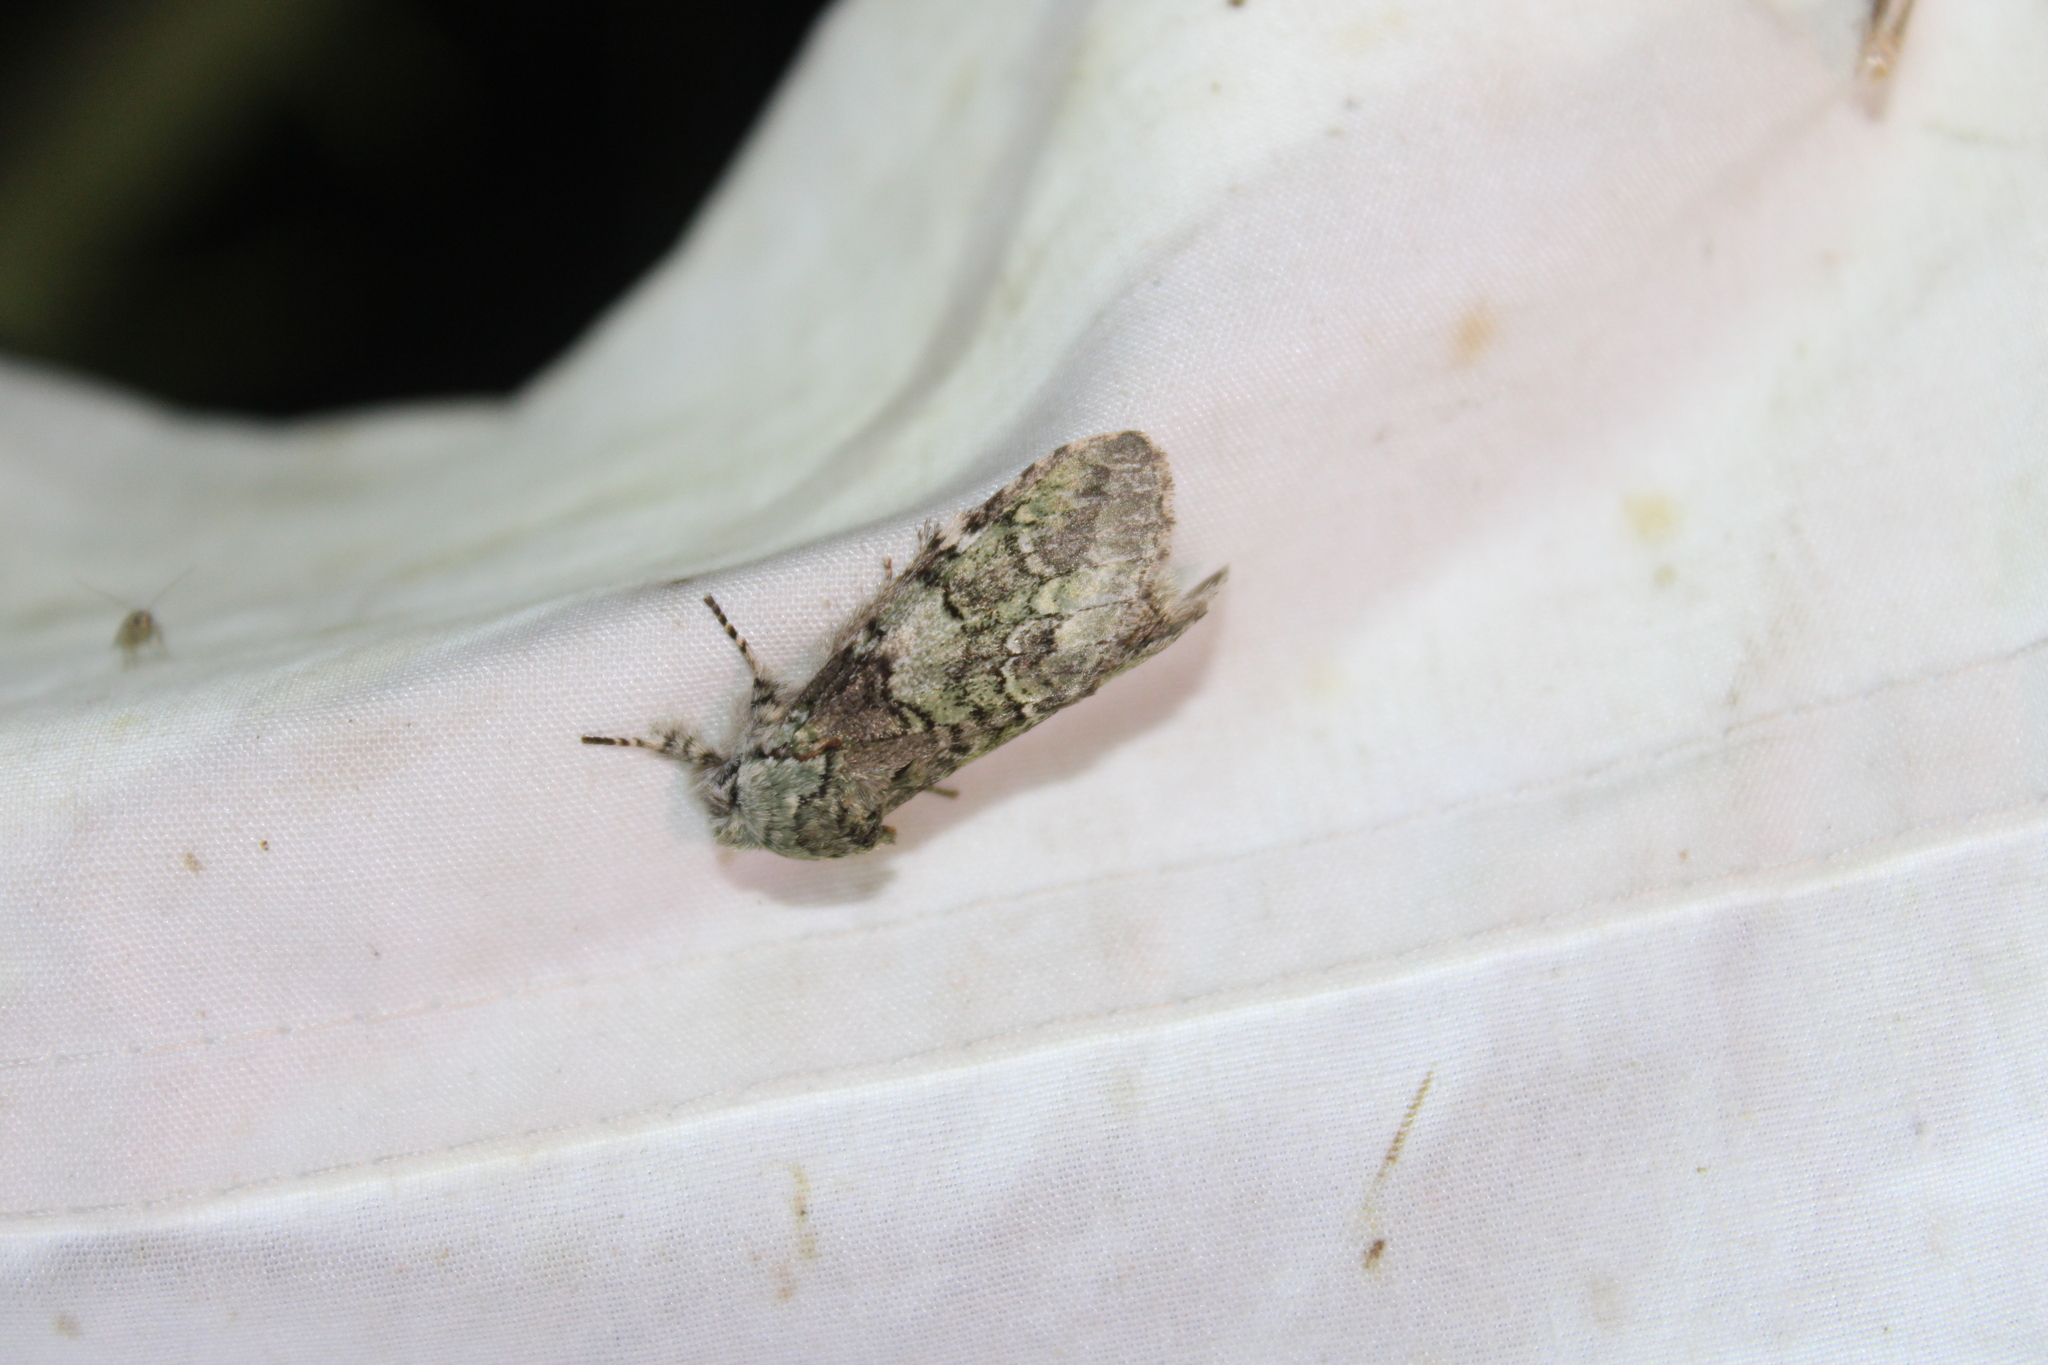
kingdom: Animalia
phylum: Arthropoda
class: Insecta
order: Lepidoptera
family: Notodontidae
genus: Macrurocampa
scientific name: Macrurocampa marthesia
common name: Mottled prominent
